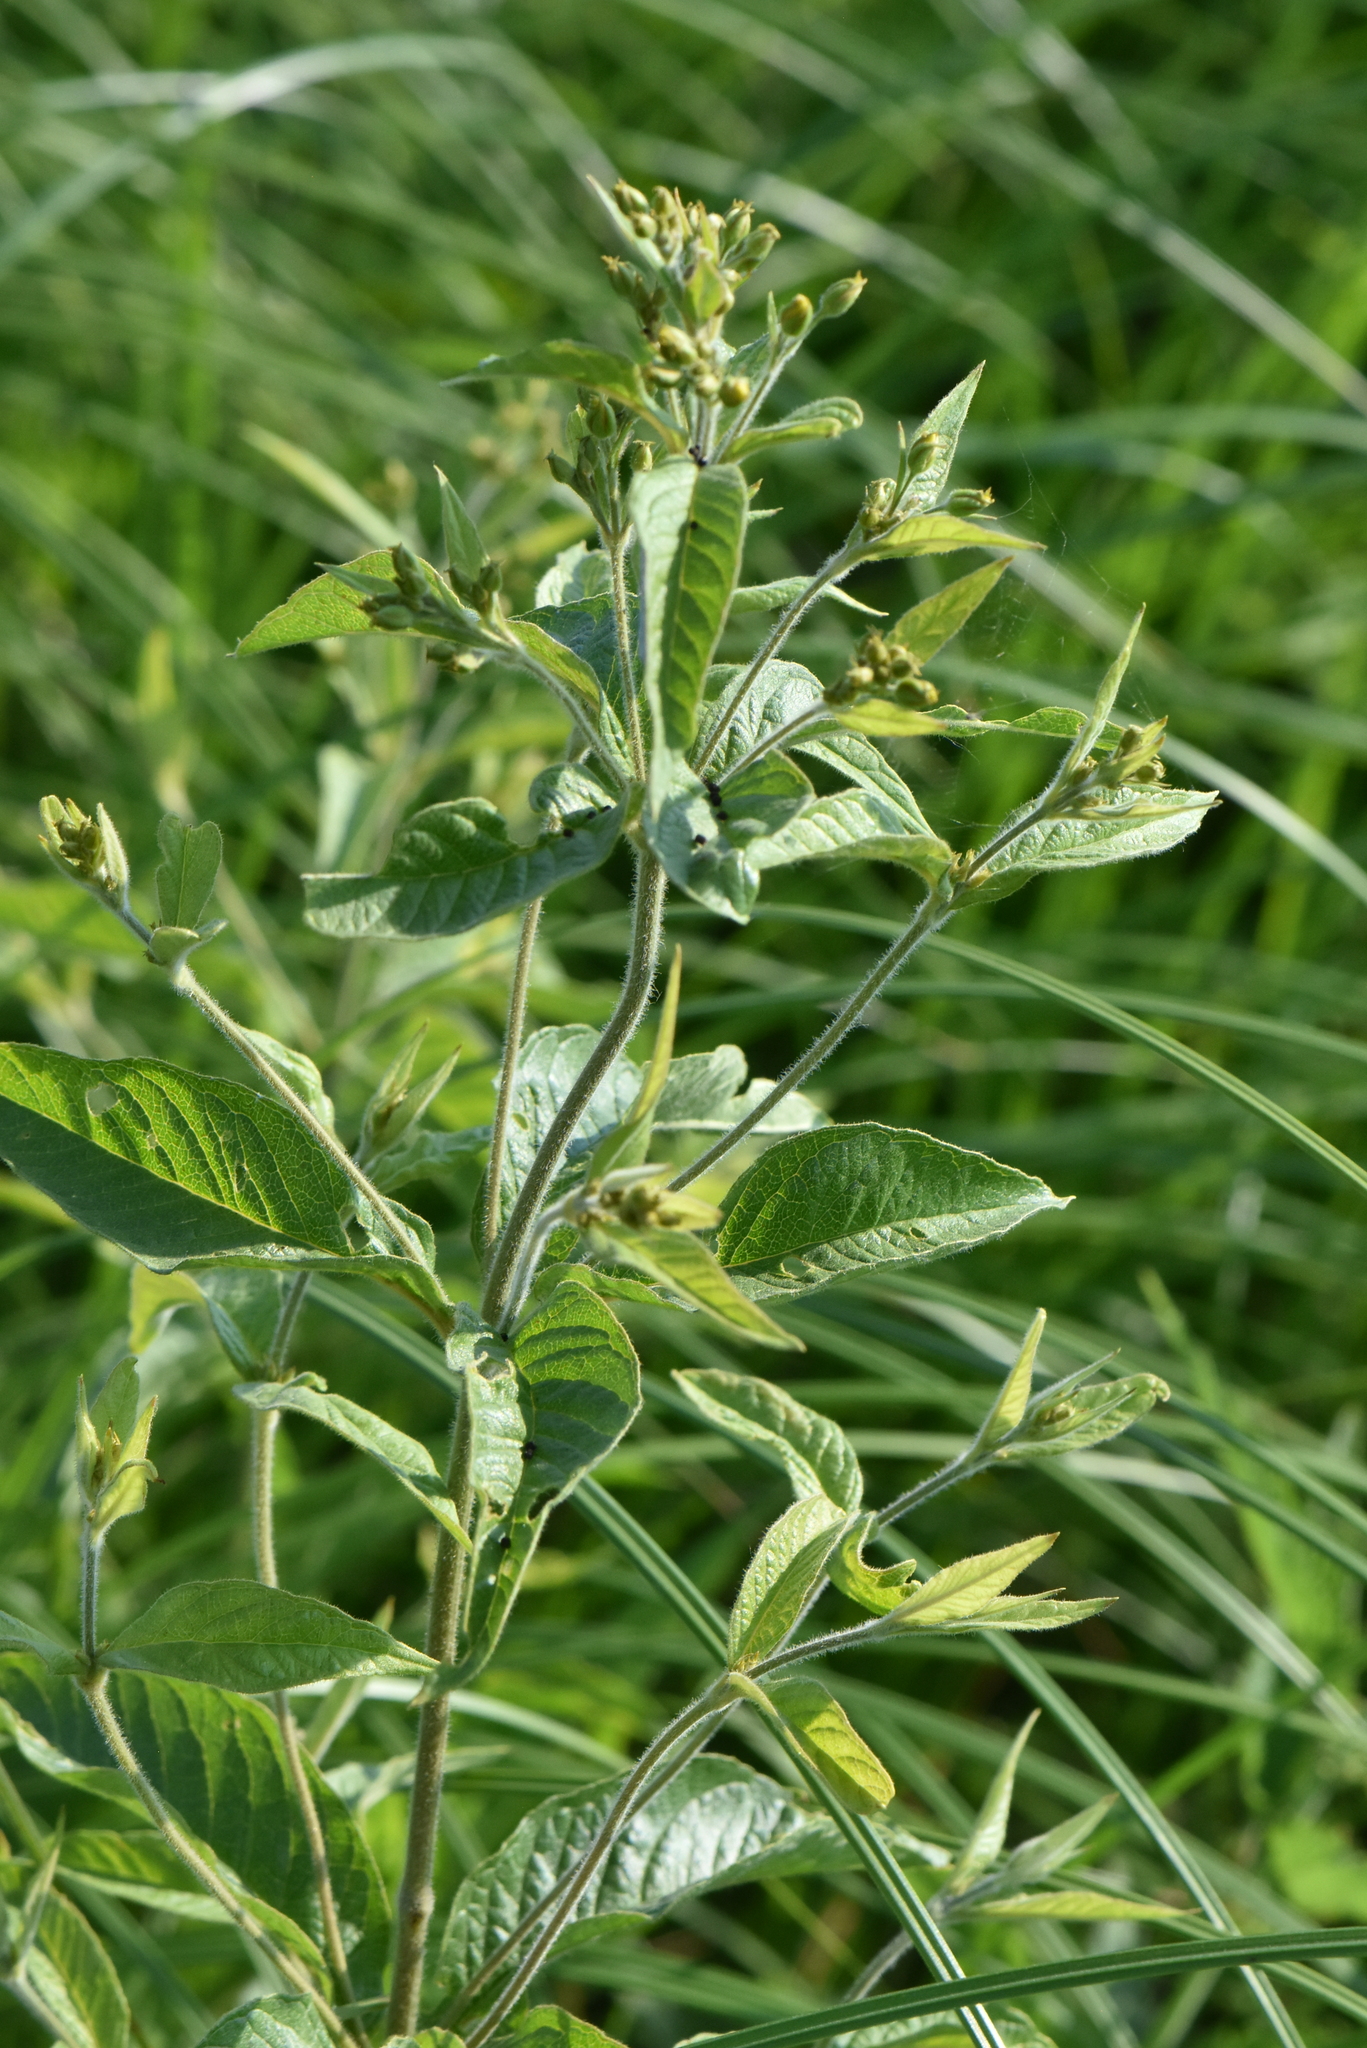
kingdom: Plantae
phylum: Tracheophyta
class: Magnoliopsida
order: Ericales
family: Primulaceae
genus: Lysimachia
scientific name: Lysimachia vulgaris
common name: Yellow loosestrife
